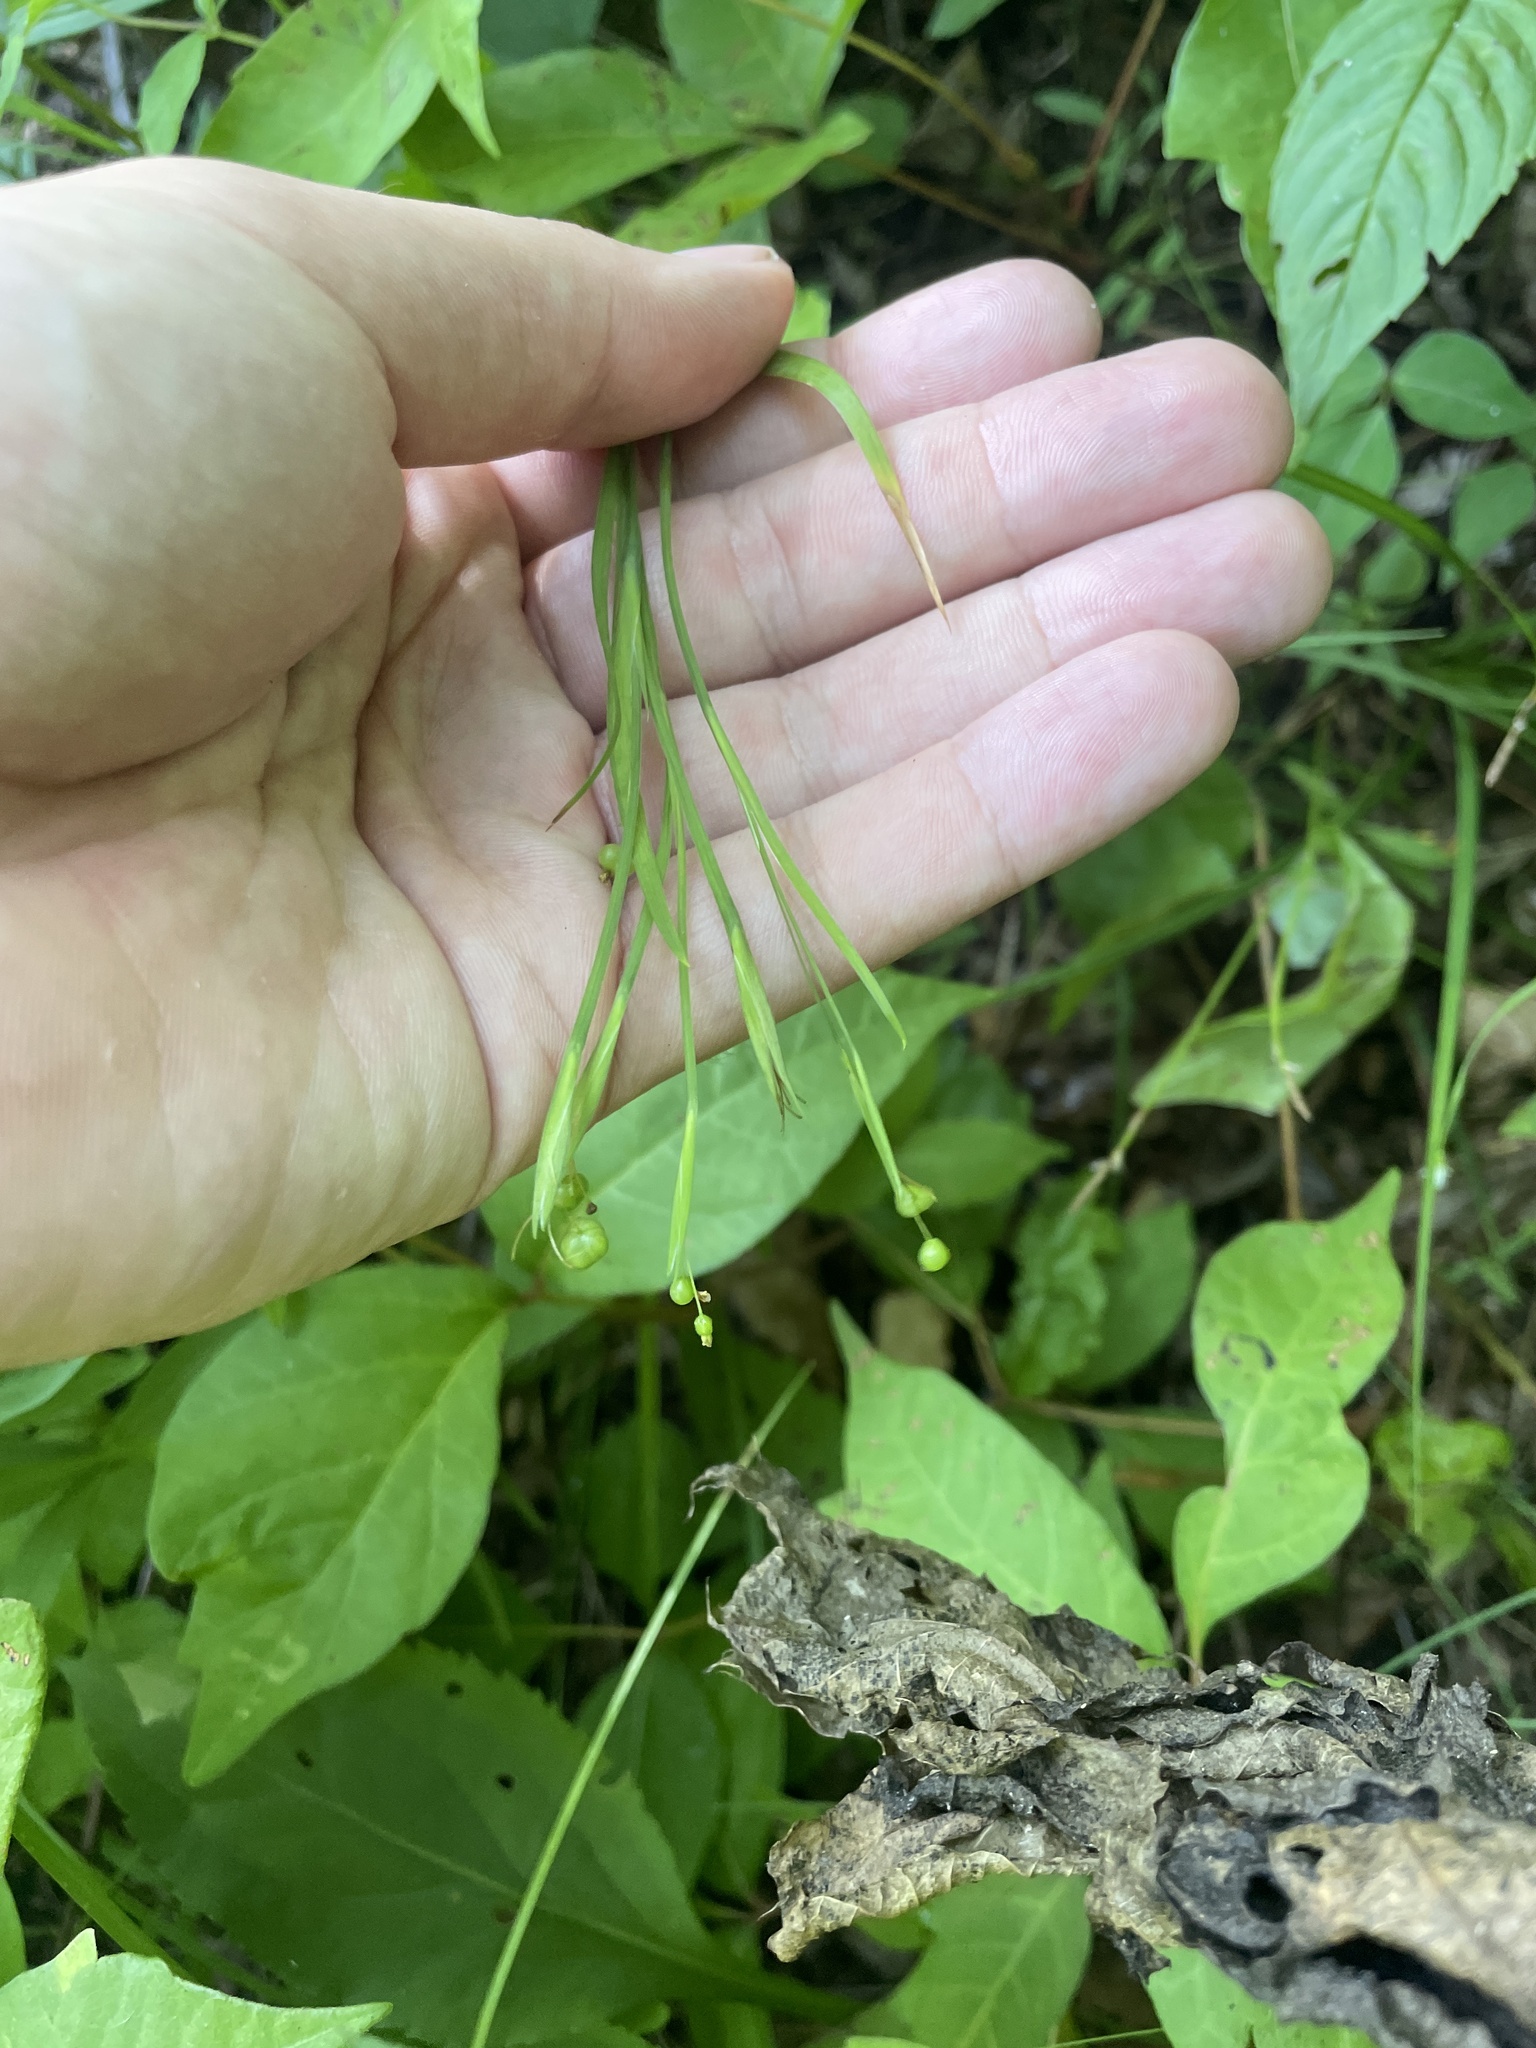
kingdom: Plantae
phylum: Tracheophyta
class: Liliopsida
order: Asparagales
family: Iridaceae
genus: Sisyrinchium
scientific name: Sisyrinchium dichotomum
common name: White irisette
